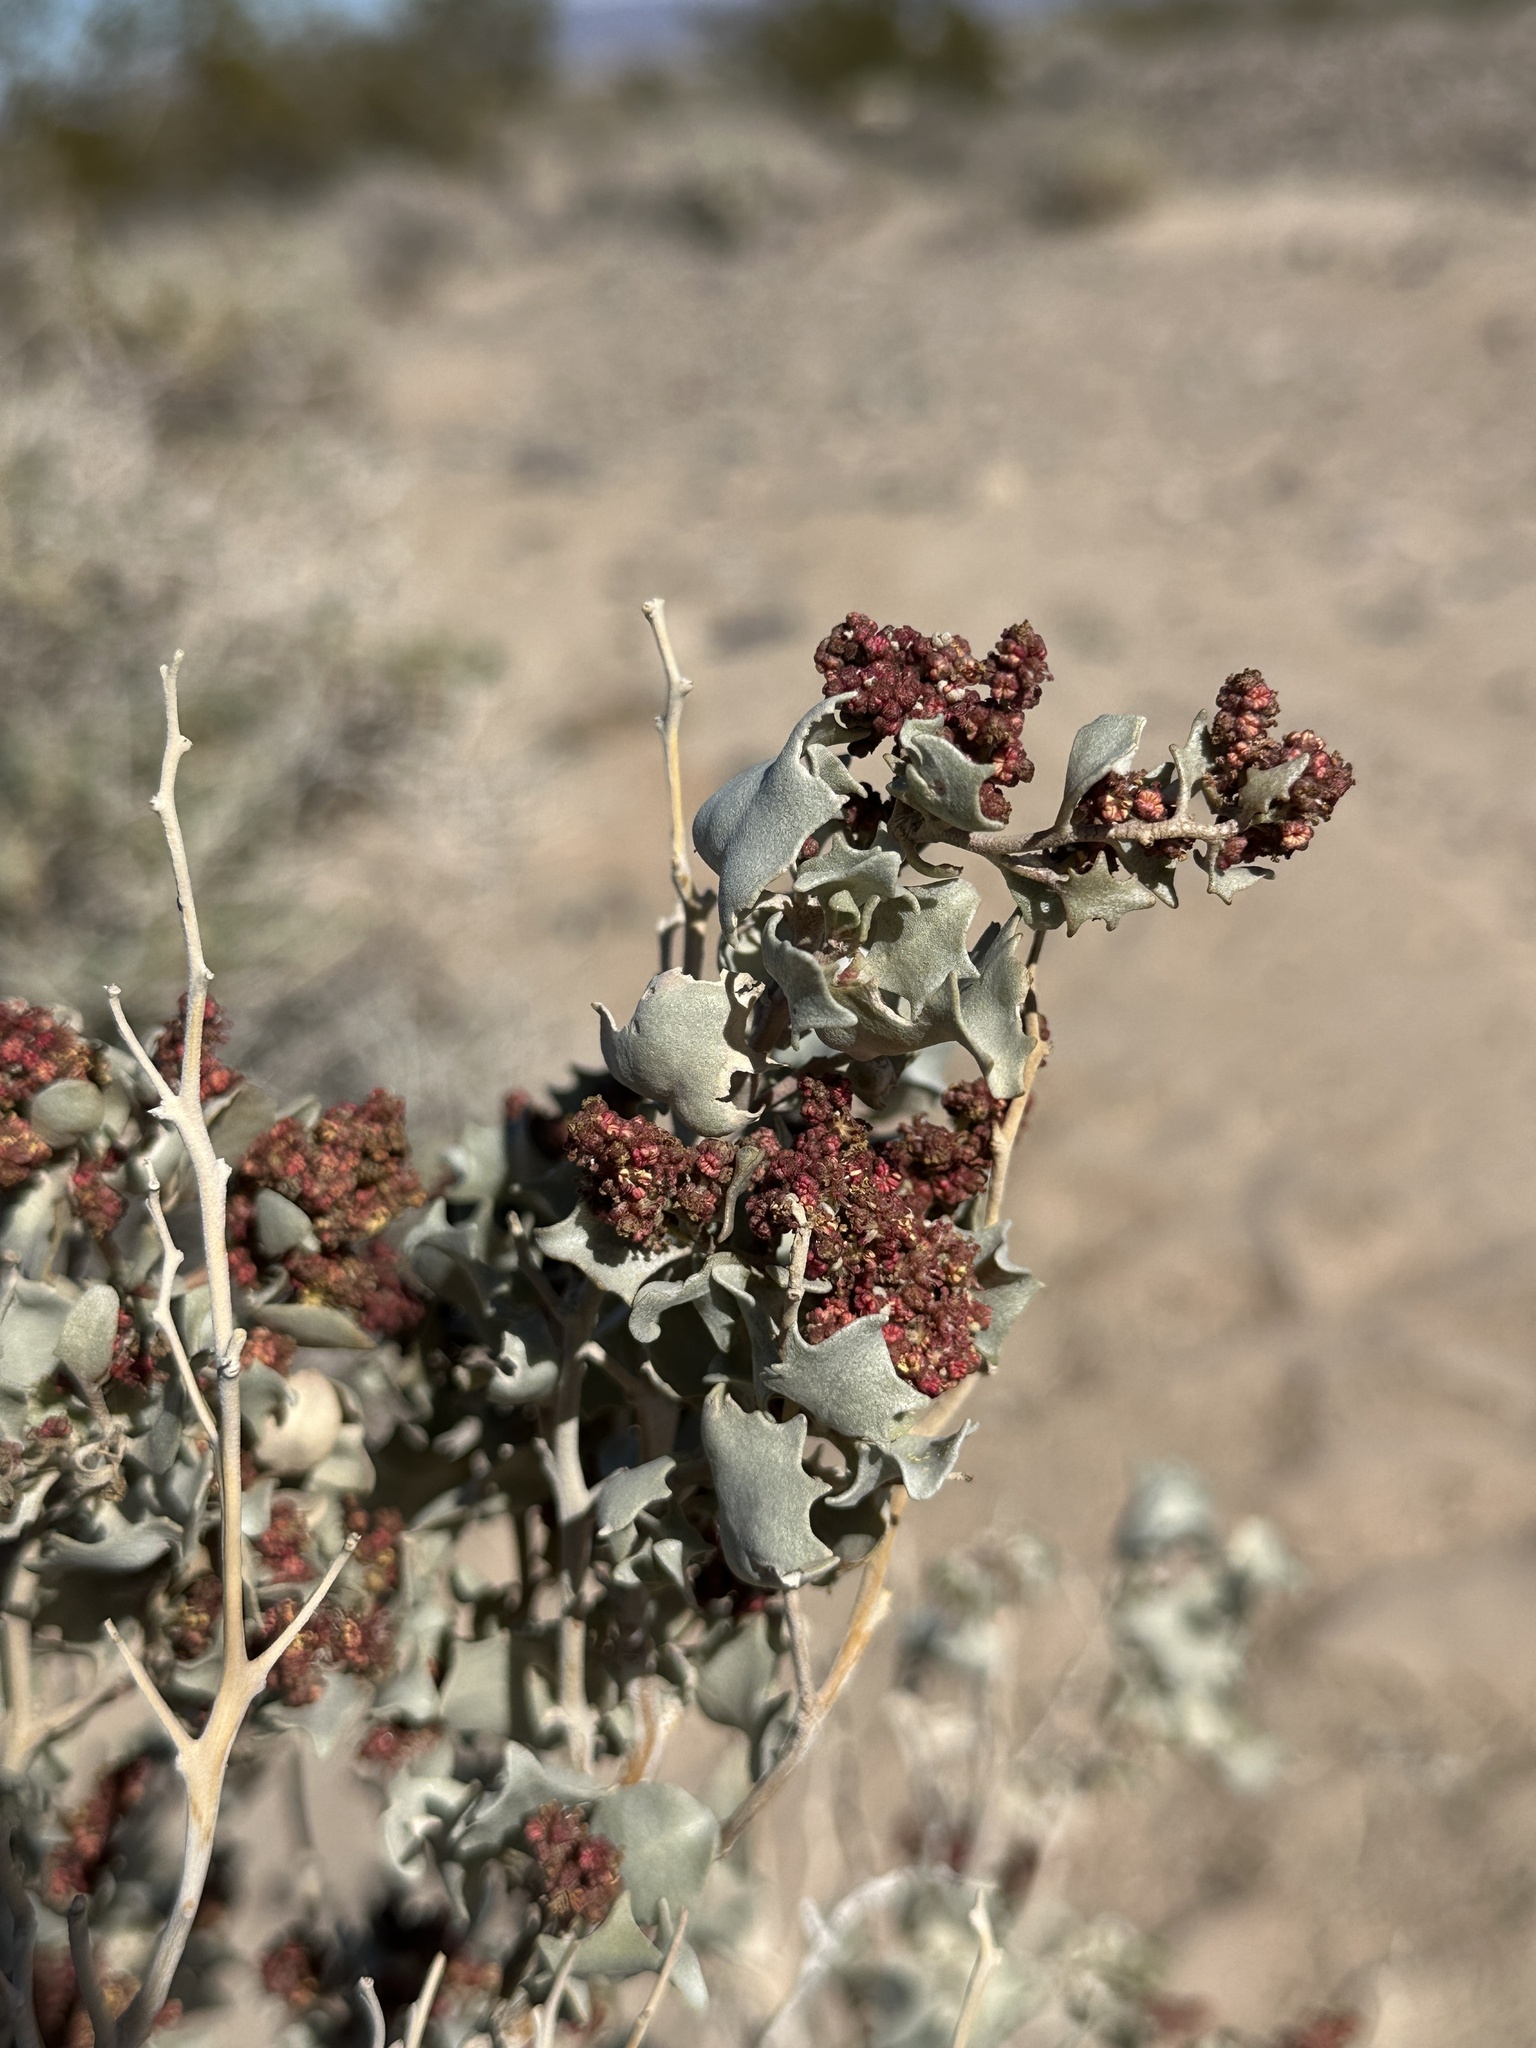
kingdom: Plantae
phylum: Tracheophyta
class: Magnoliopsida
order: Caryophyllales
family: Amaranthaceae
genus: Atriplex
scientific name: Atriplex hymenelytra
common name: Desert-holly
